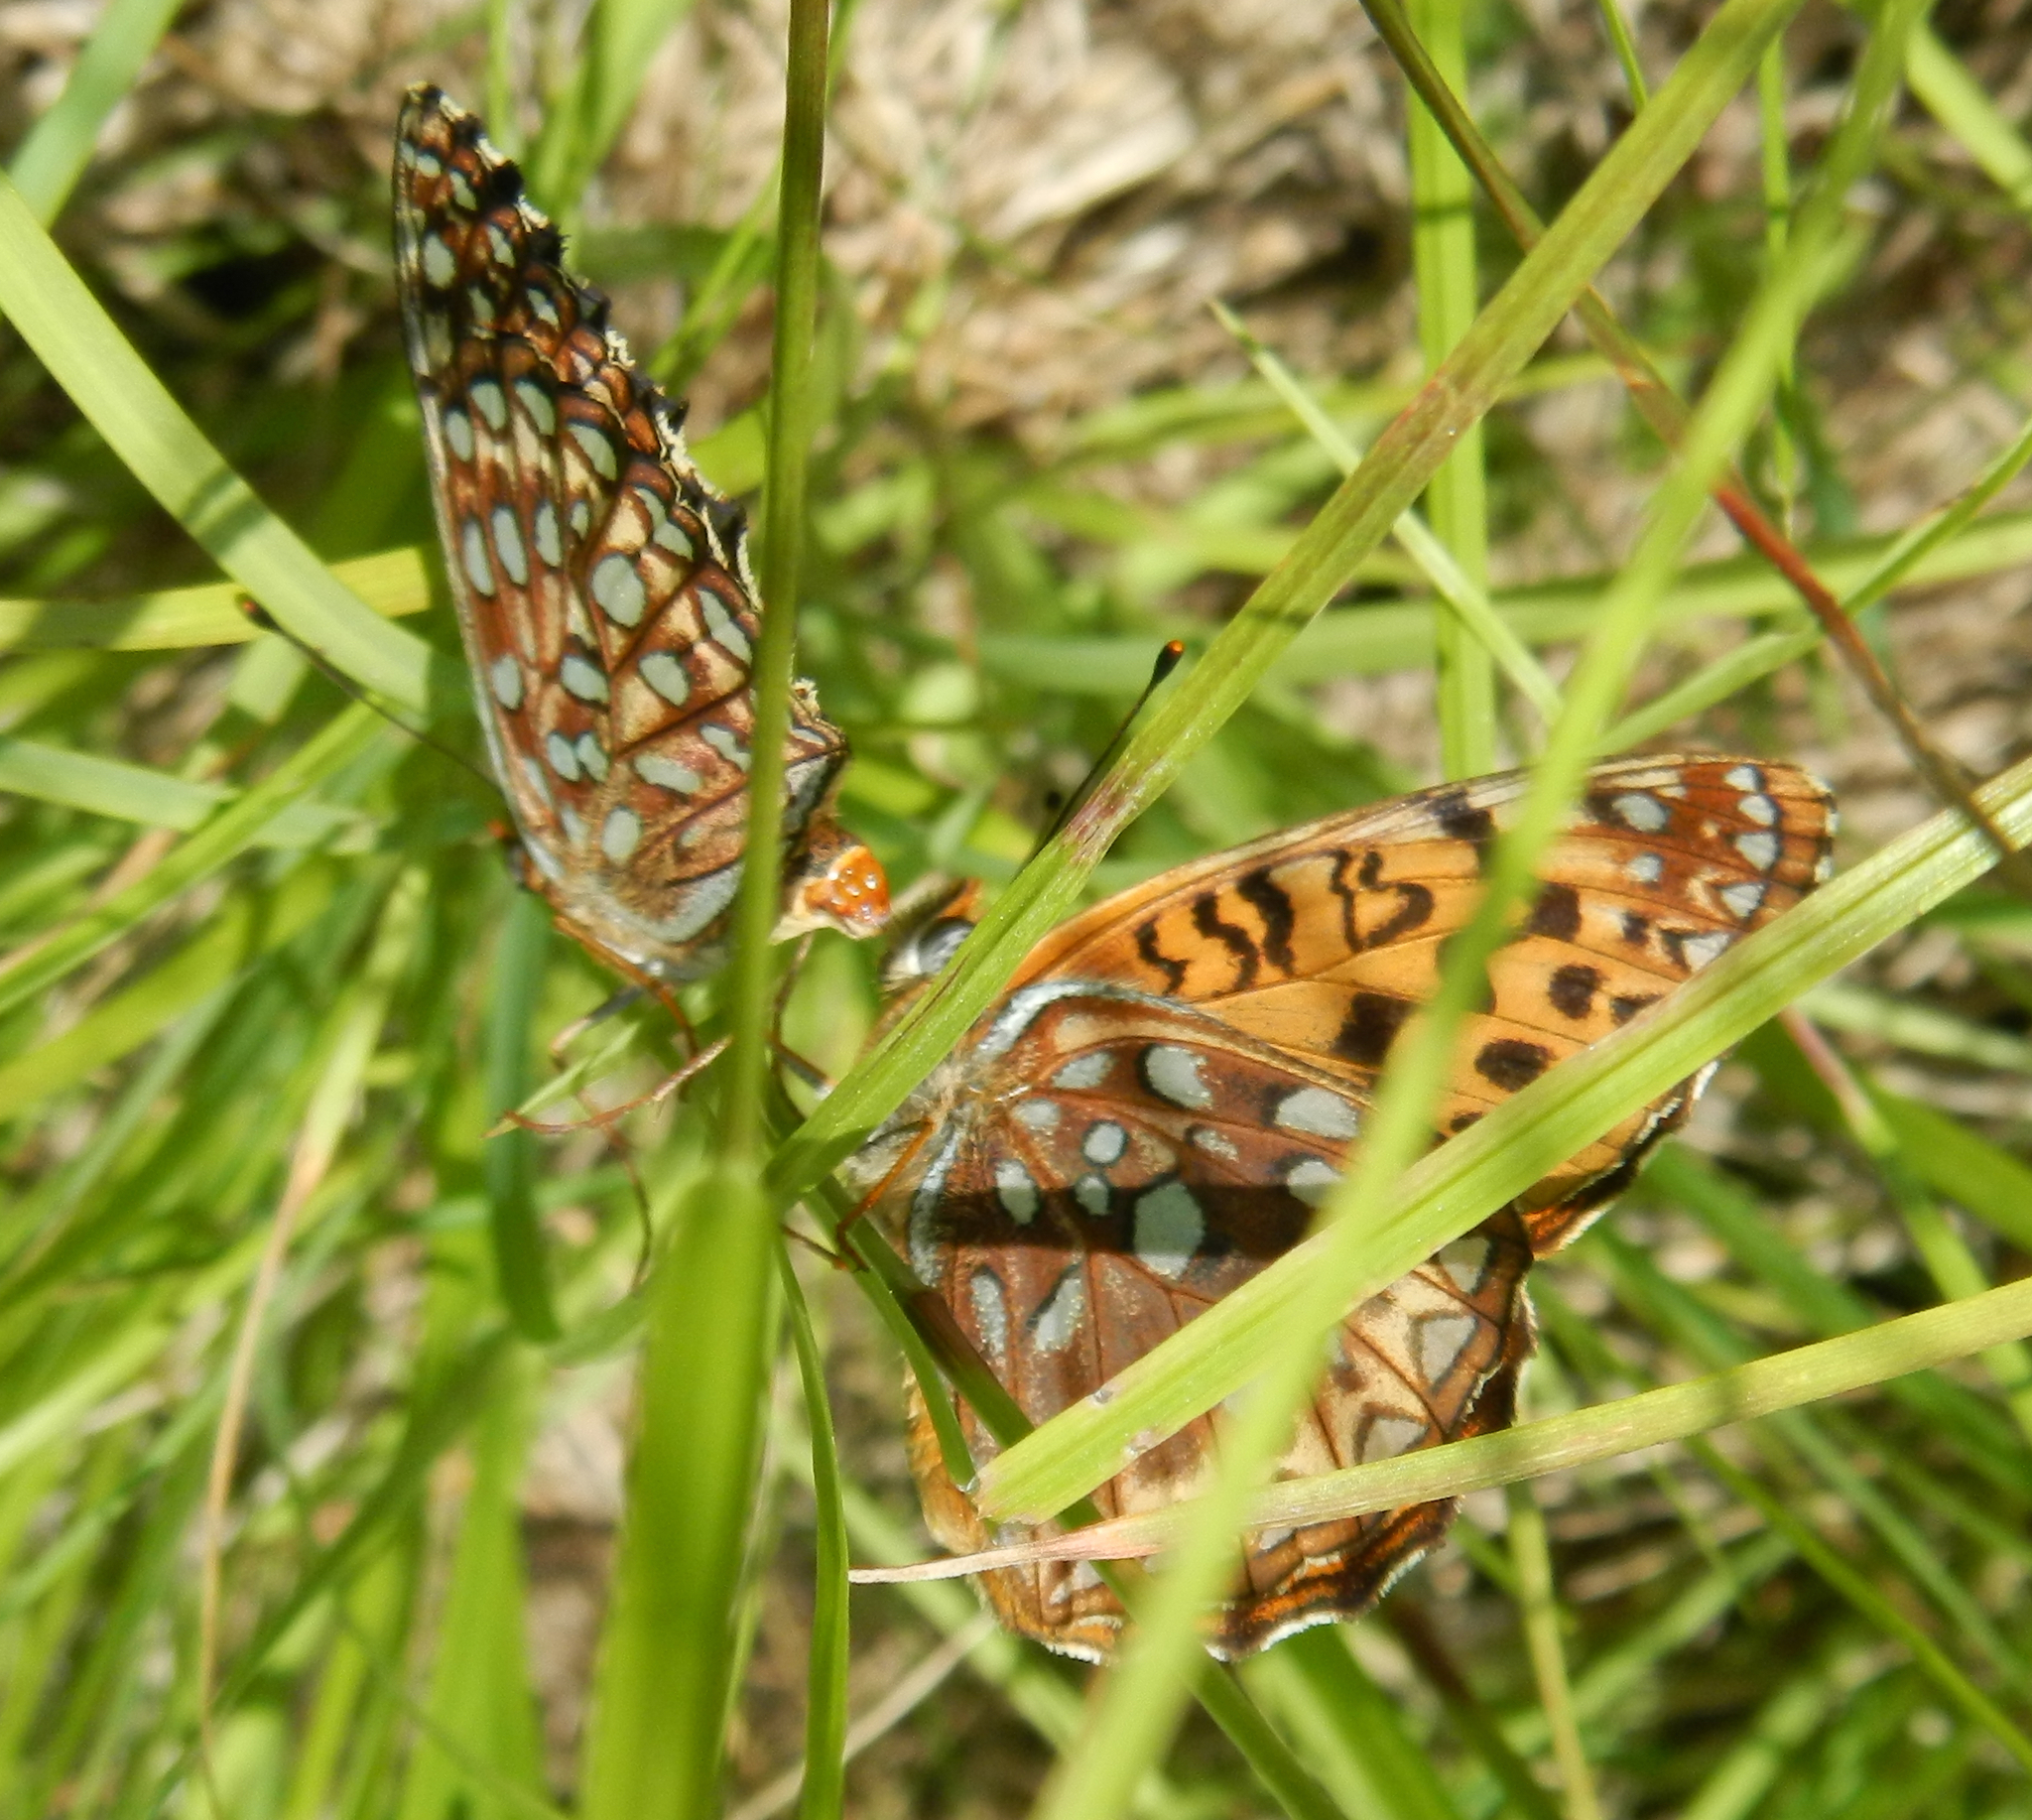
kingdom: Animalia
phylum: Arthropoda
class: Insecta
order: Lepidoptera
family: Nymphalidae
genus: Speyeria
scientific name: Speyeria atlantis
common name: Atlantis fritillary
